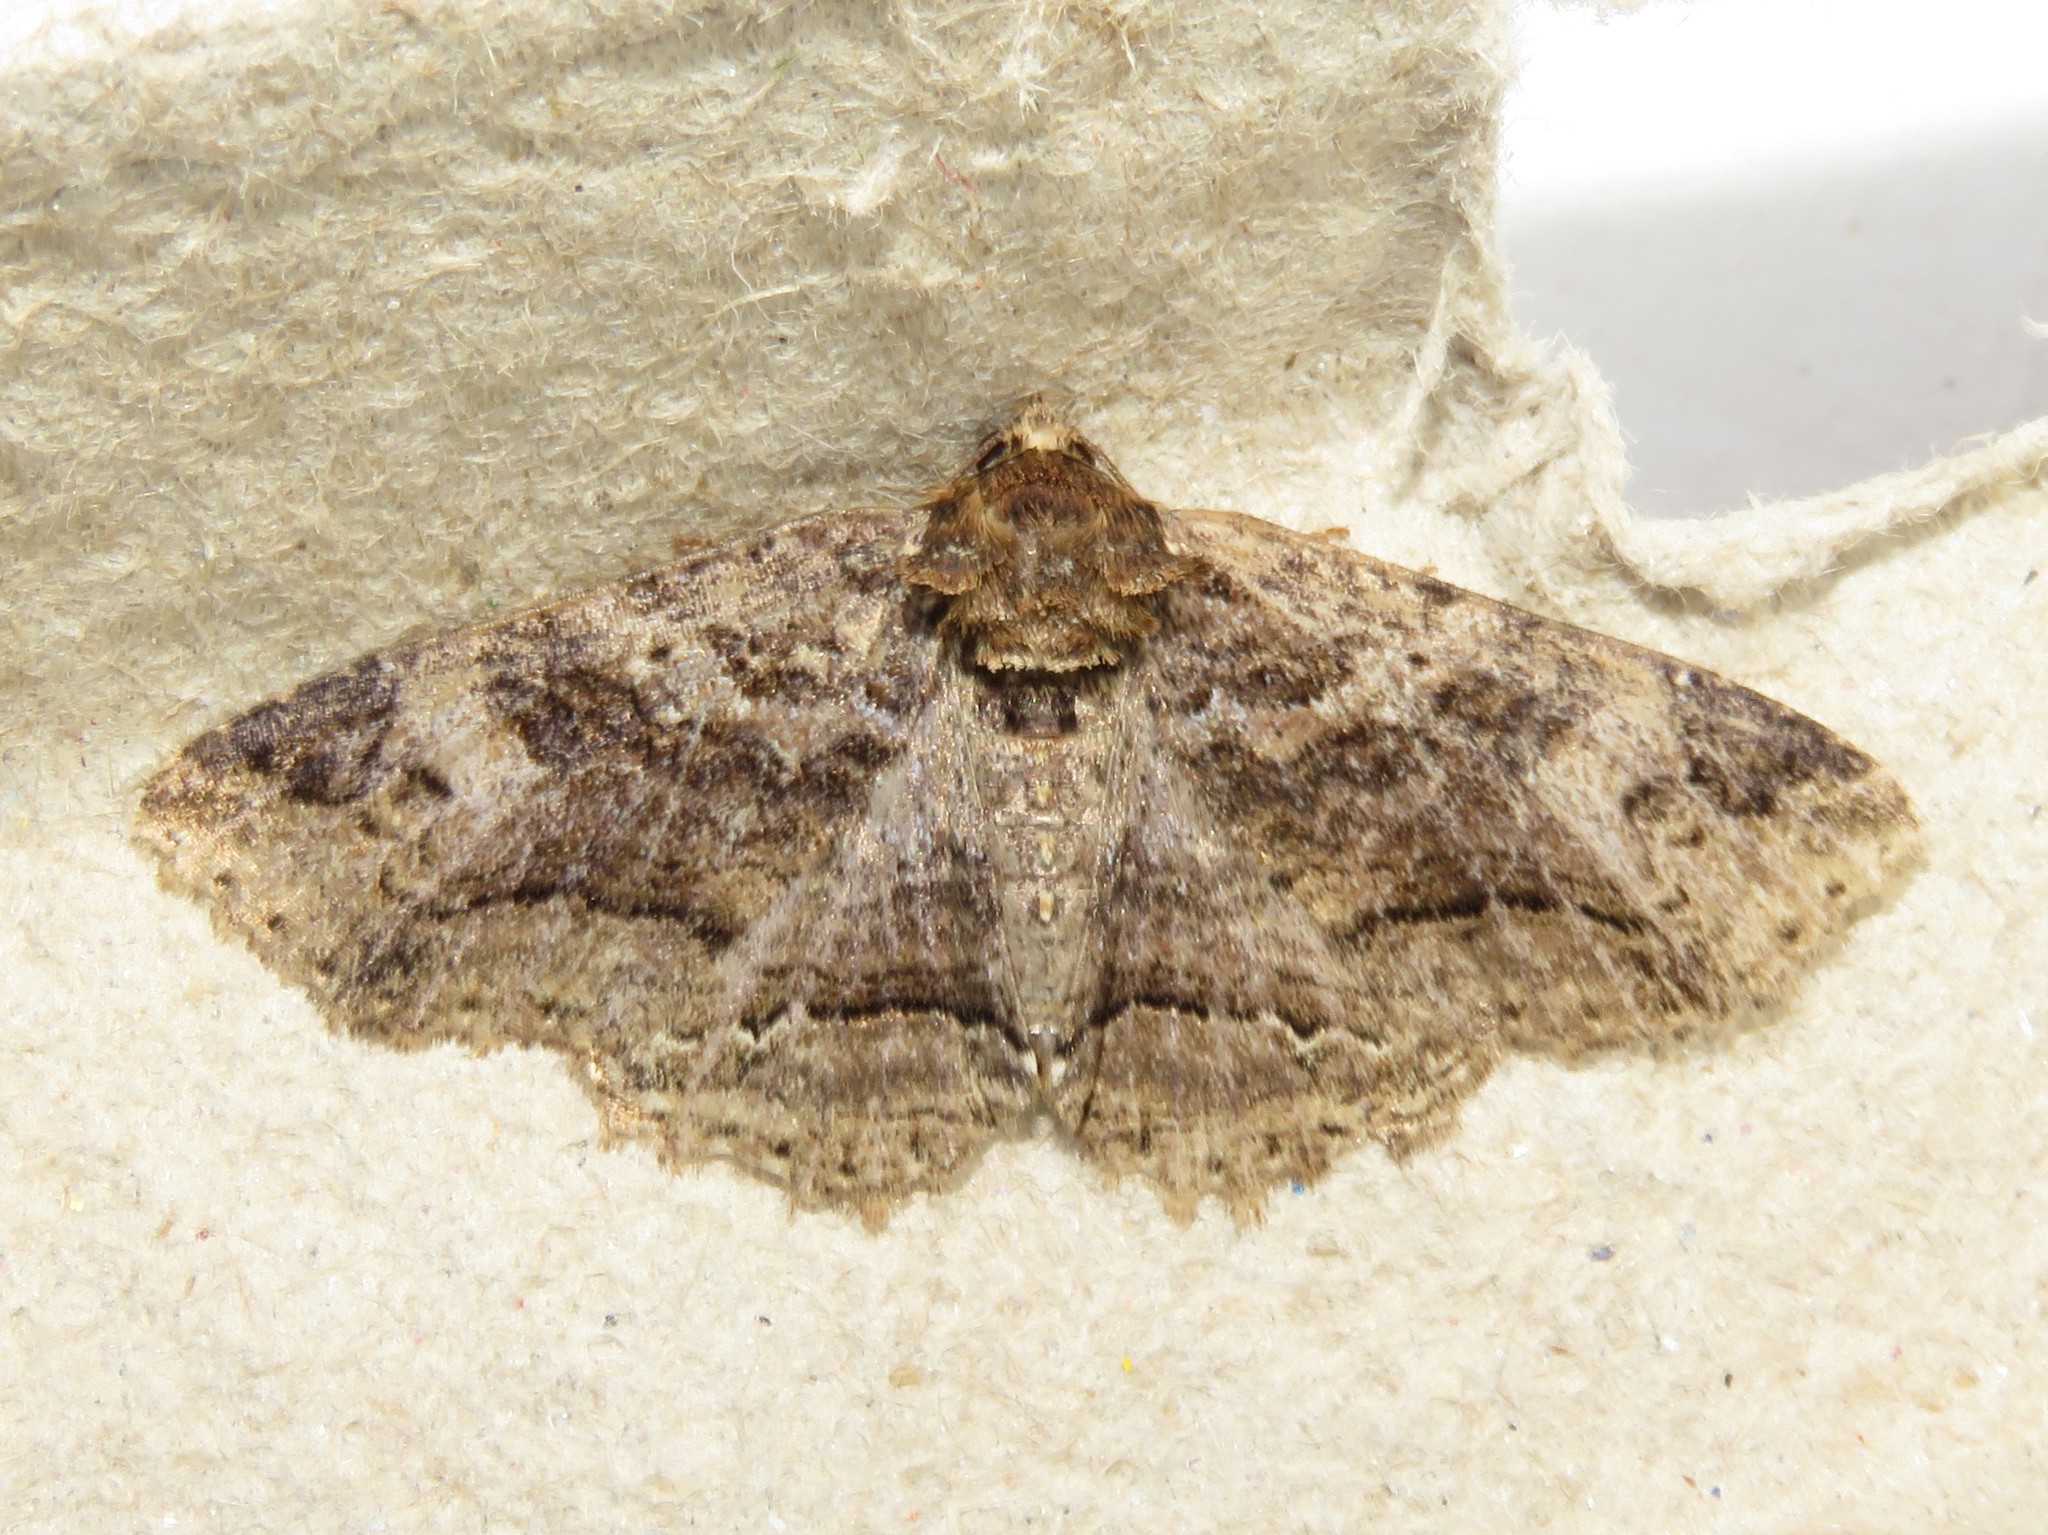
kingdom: Animalia
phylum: Arthropoda
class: Insecta
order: Lepidoptera
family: Erebidae
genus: Zale
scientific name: Zale minerea
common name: Colorful zale moth
